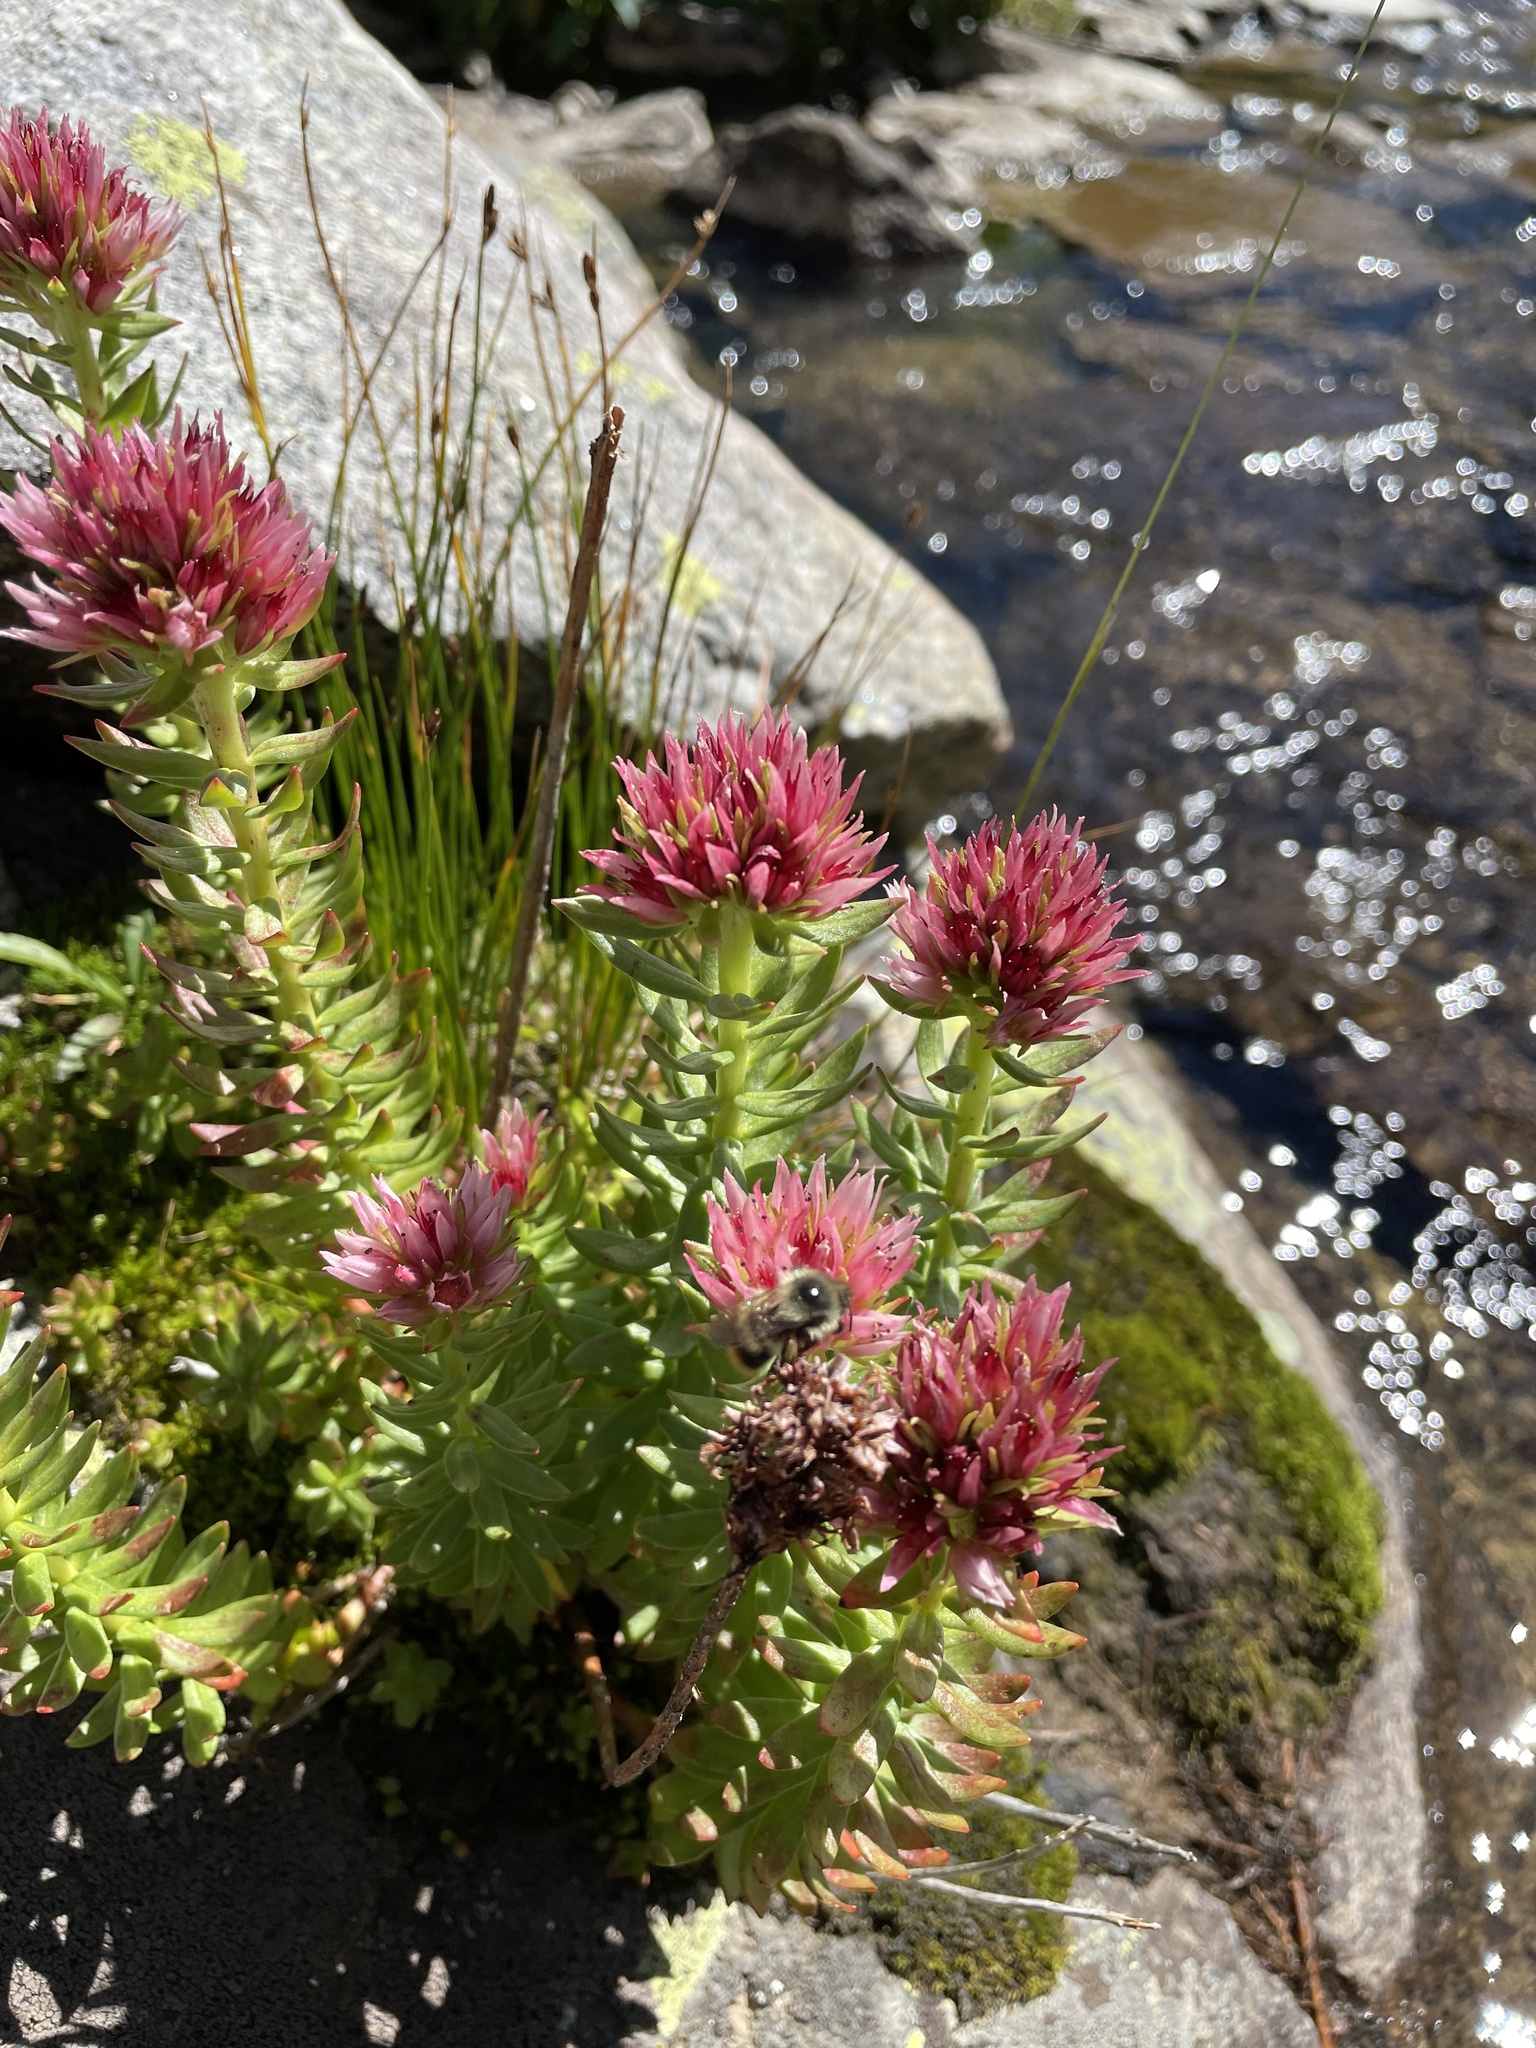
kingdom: Plantae
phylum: Tracheophyta
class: Magnoliopsida
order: Saxifragales
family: Crassulaceae
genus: Rhodiola
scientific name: Rhodiola rhodantha
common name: Red orpine
